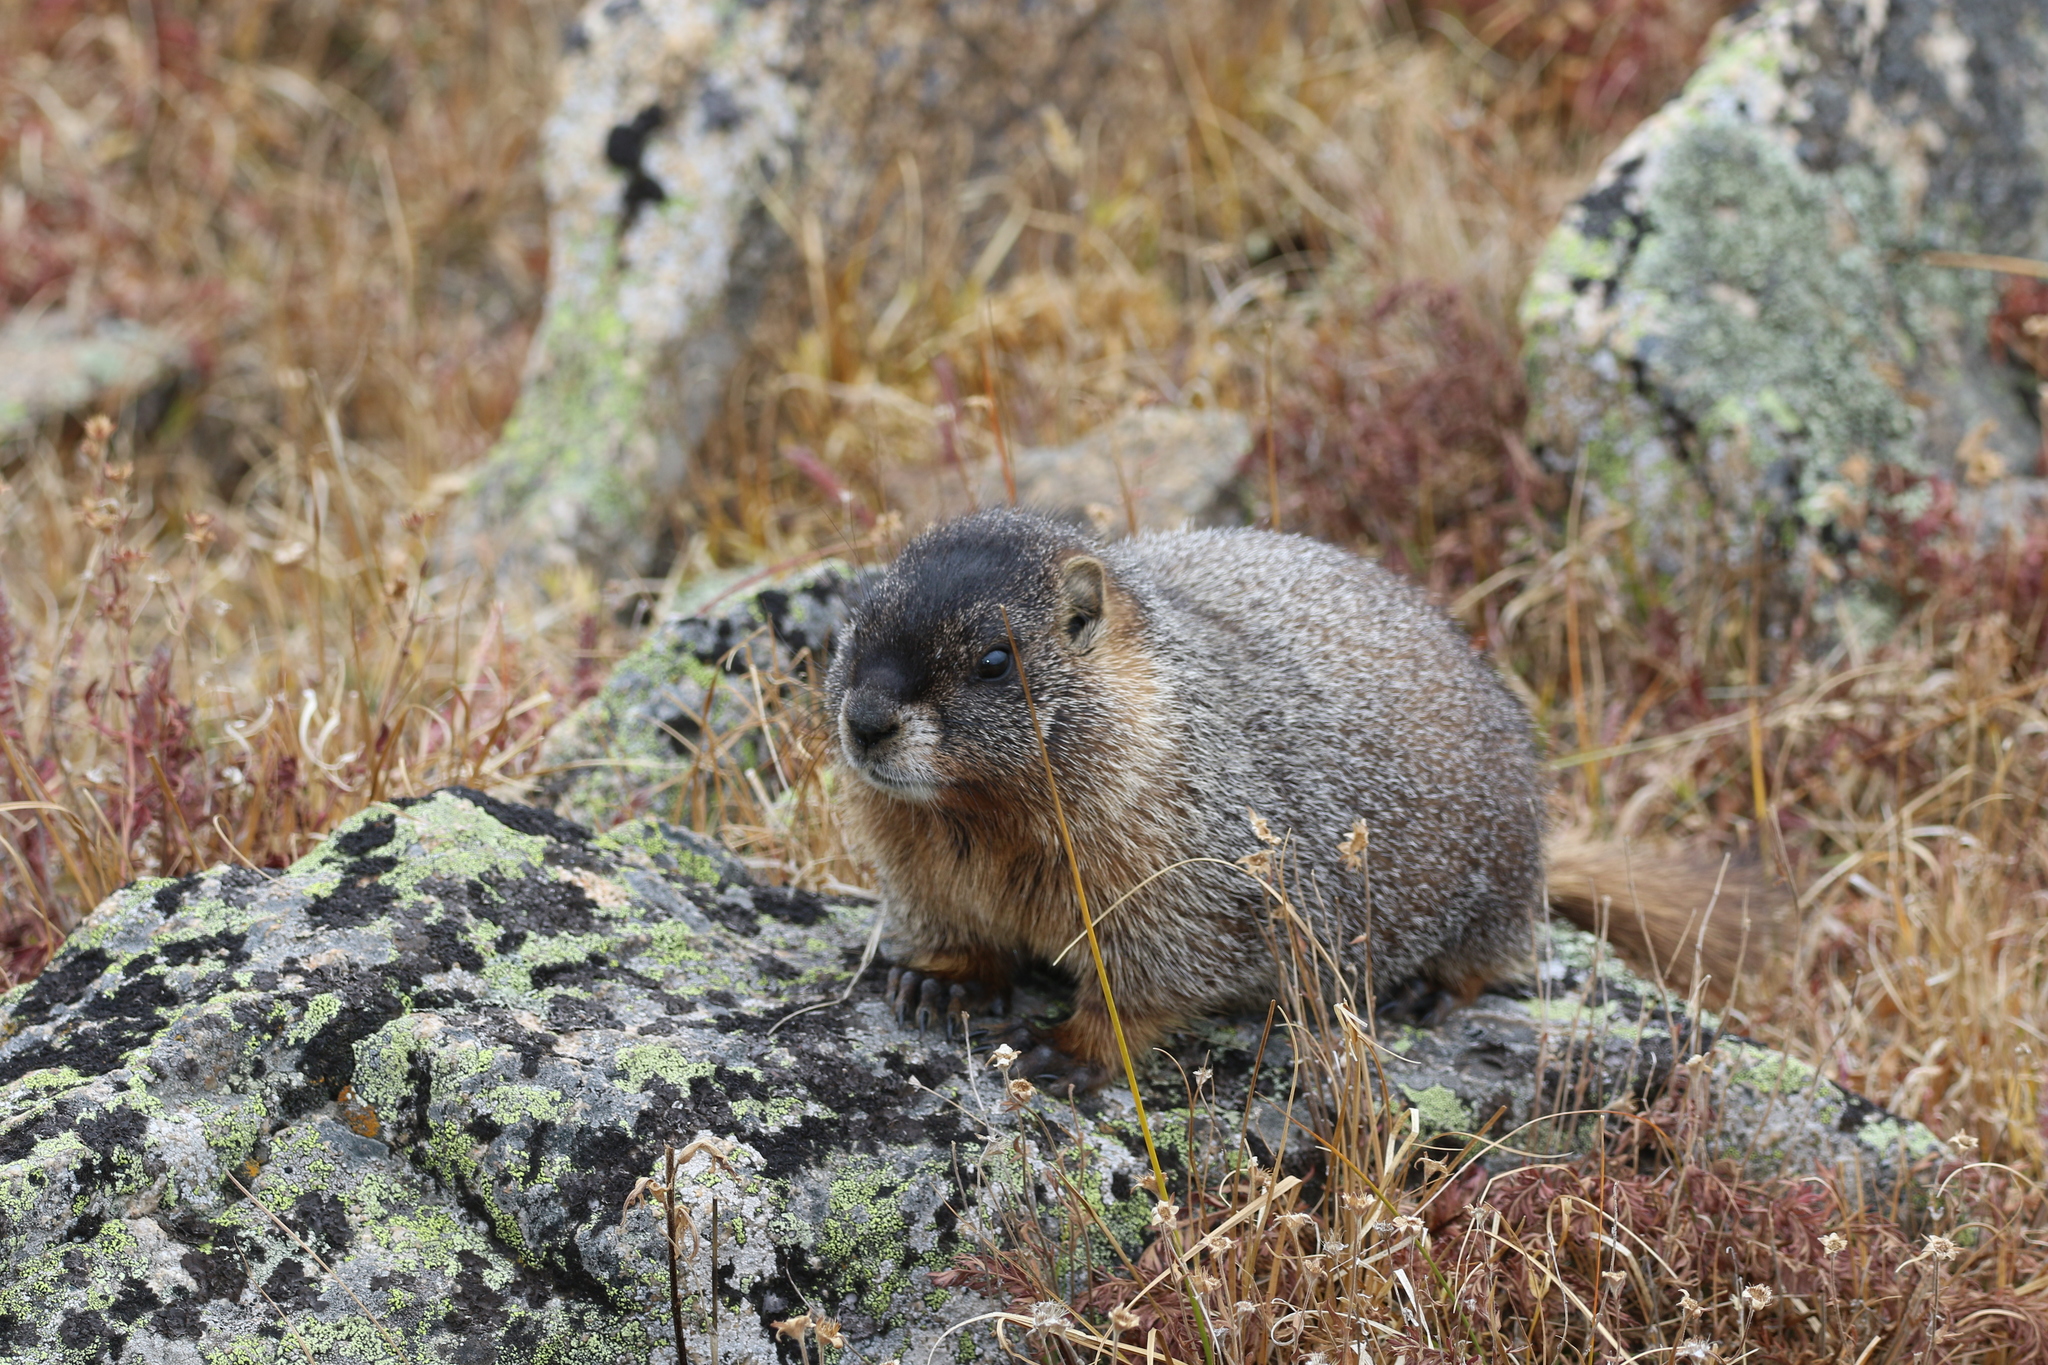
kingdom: Animalia
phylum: Chordata
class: Mammalia
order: Rodentia
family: Sciuridae
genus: Marmota
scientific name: Marmota flaviventris
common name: Yellow-bellied marmot
